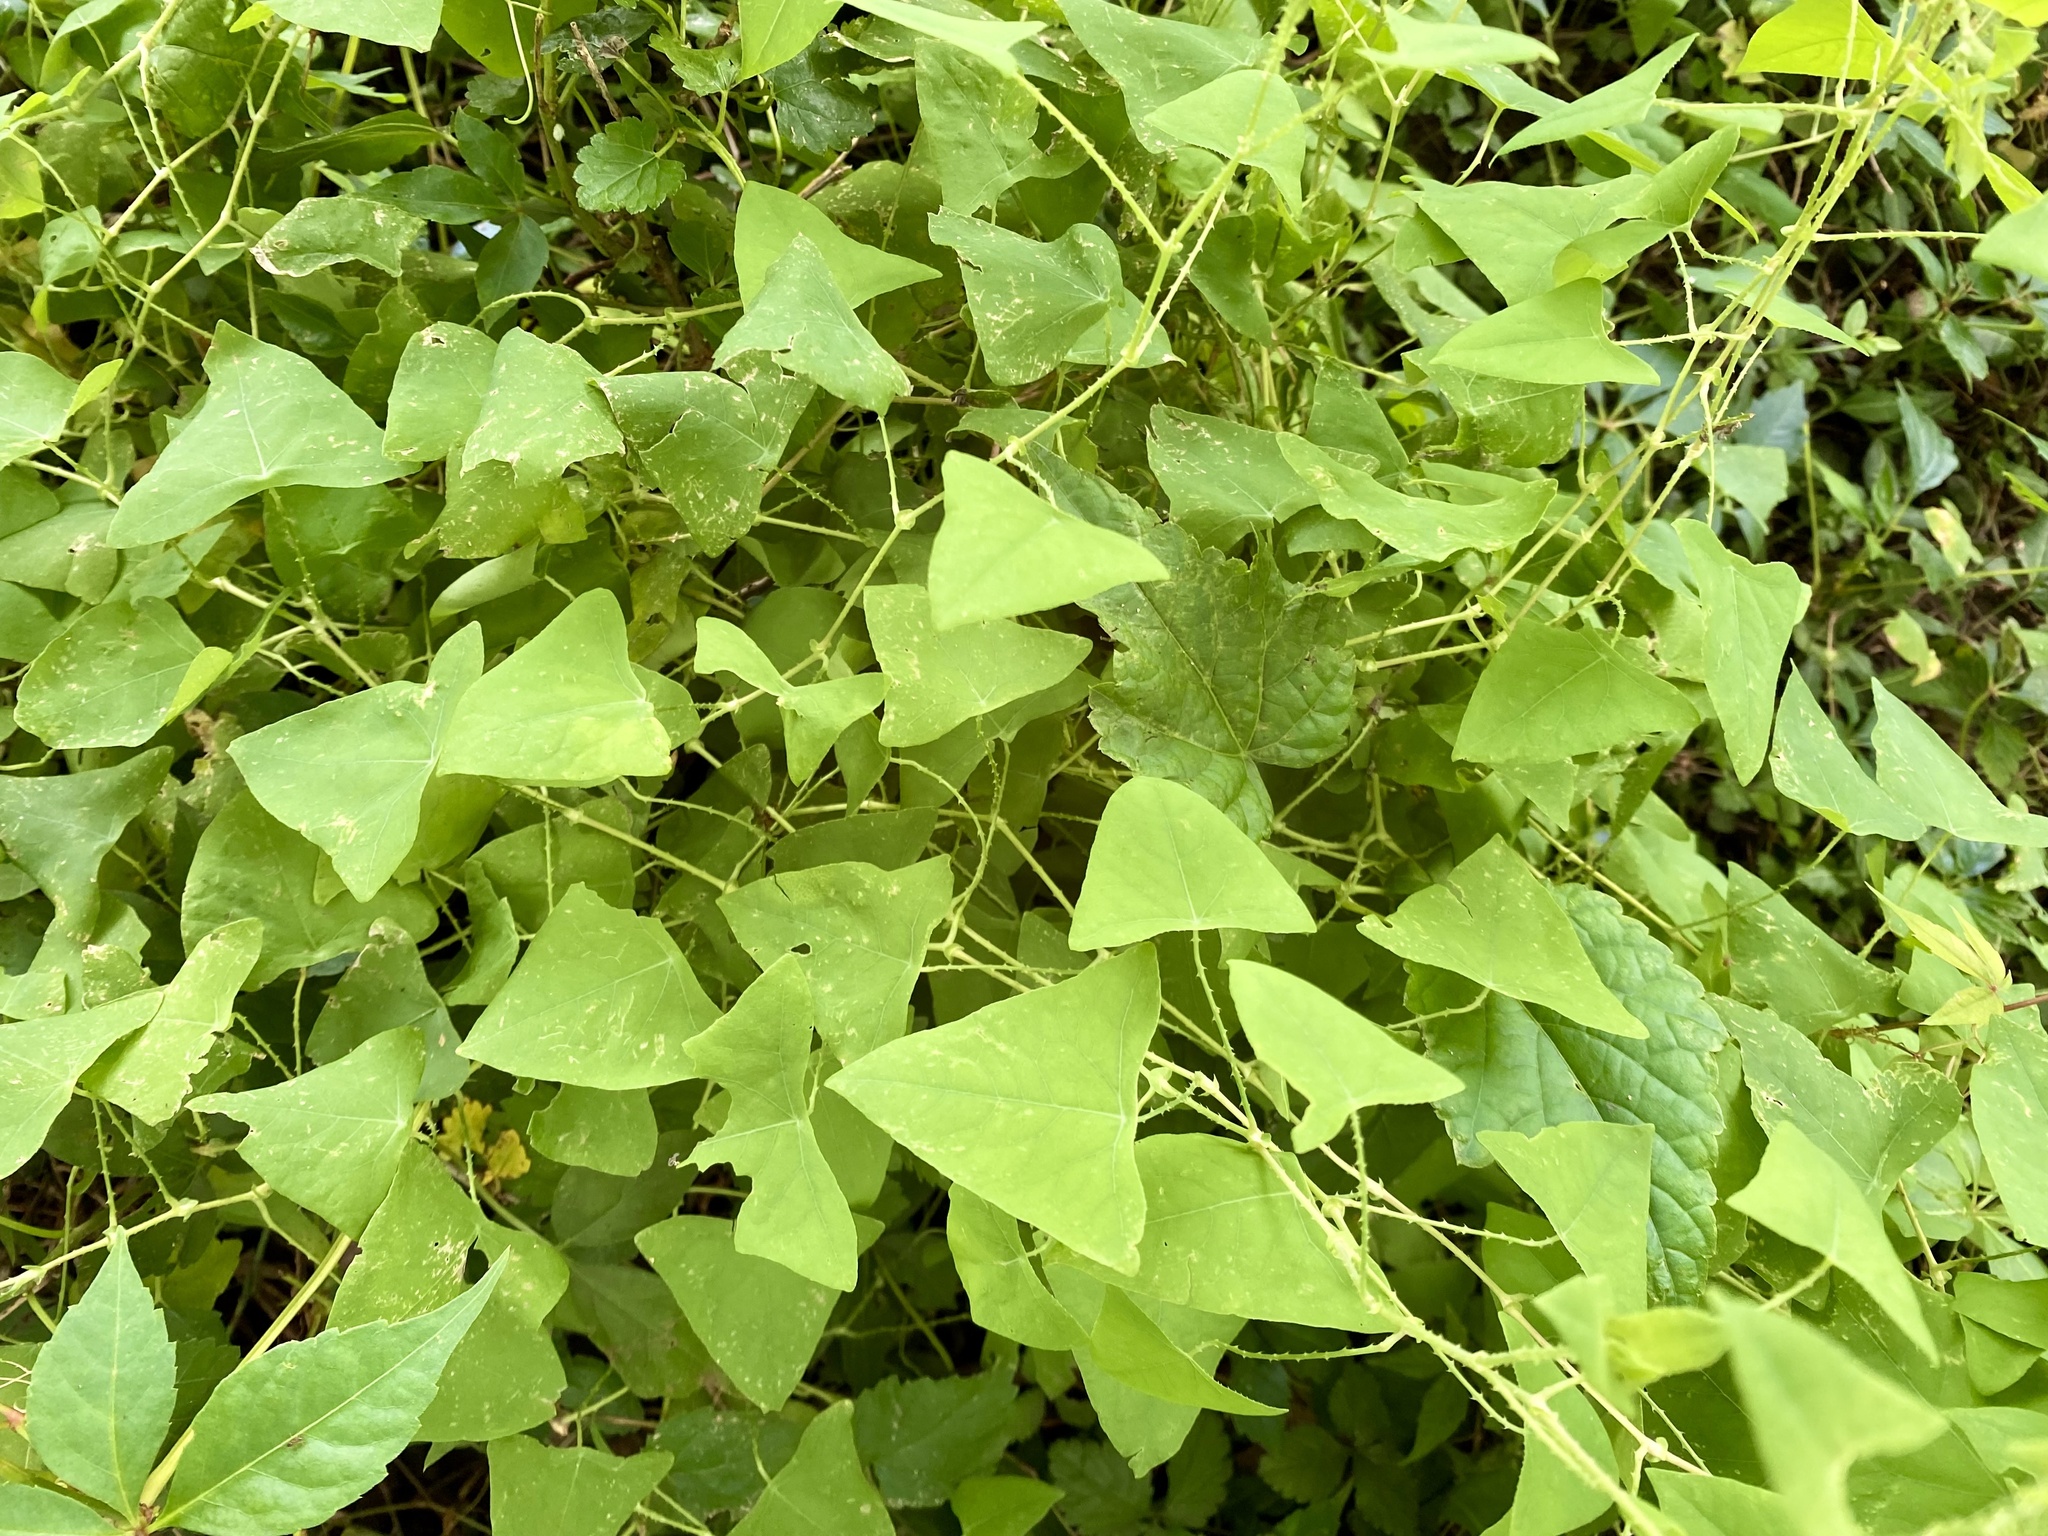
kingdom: Plantae
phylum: Tracheophyta
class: Magnoliopsida
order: Caryophyllales
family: Polygonaceae
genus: Persicaria
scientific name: Persicaria perfoliata
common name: Asiatic tearthumb
